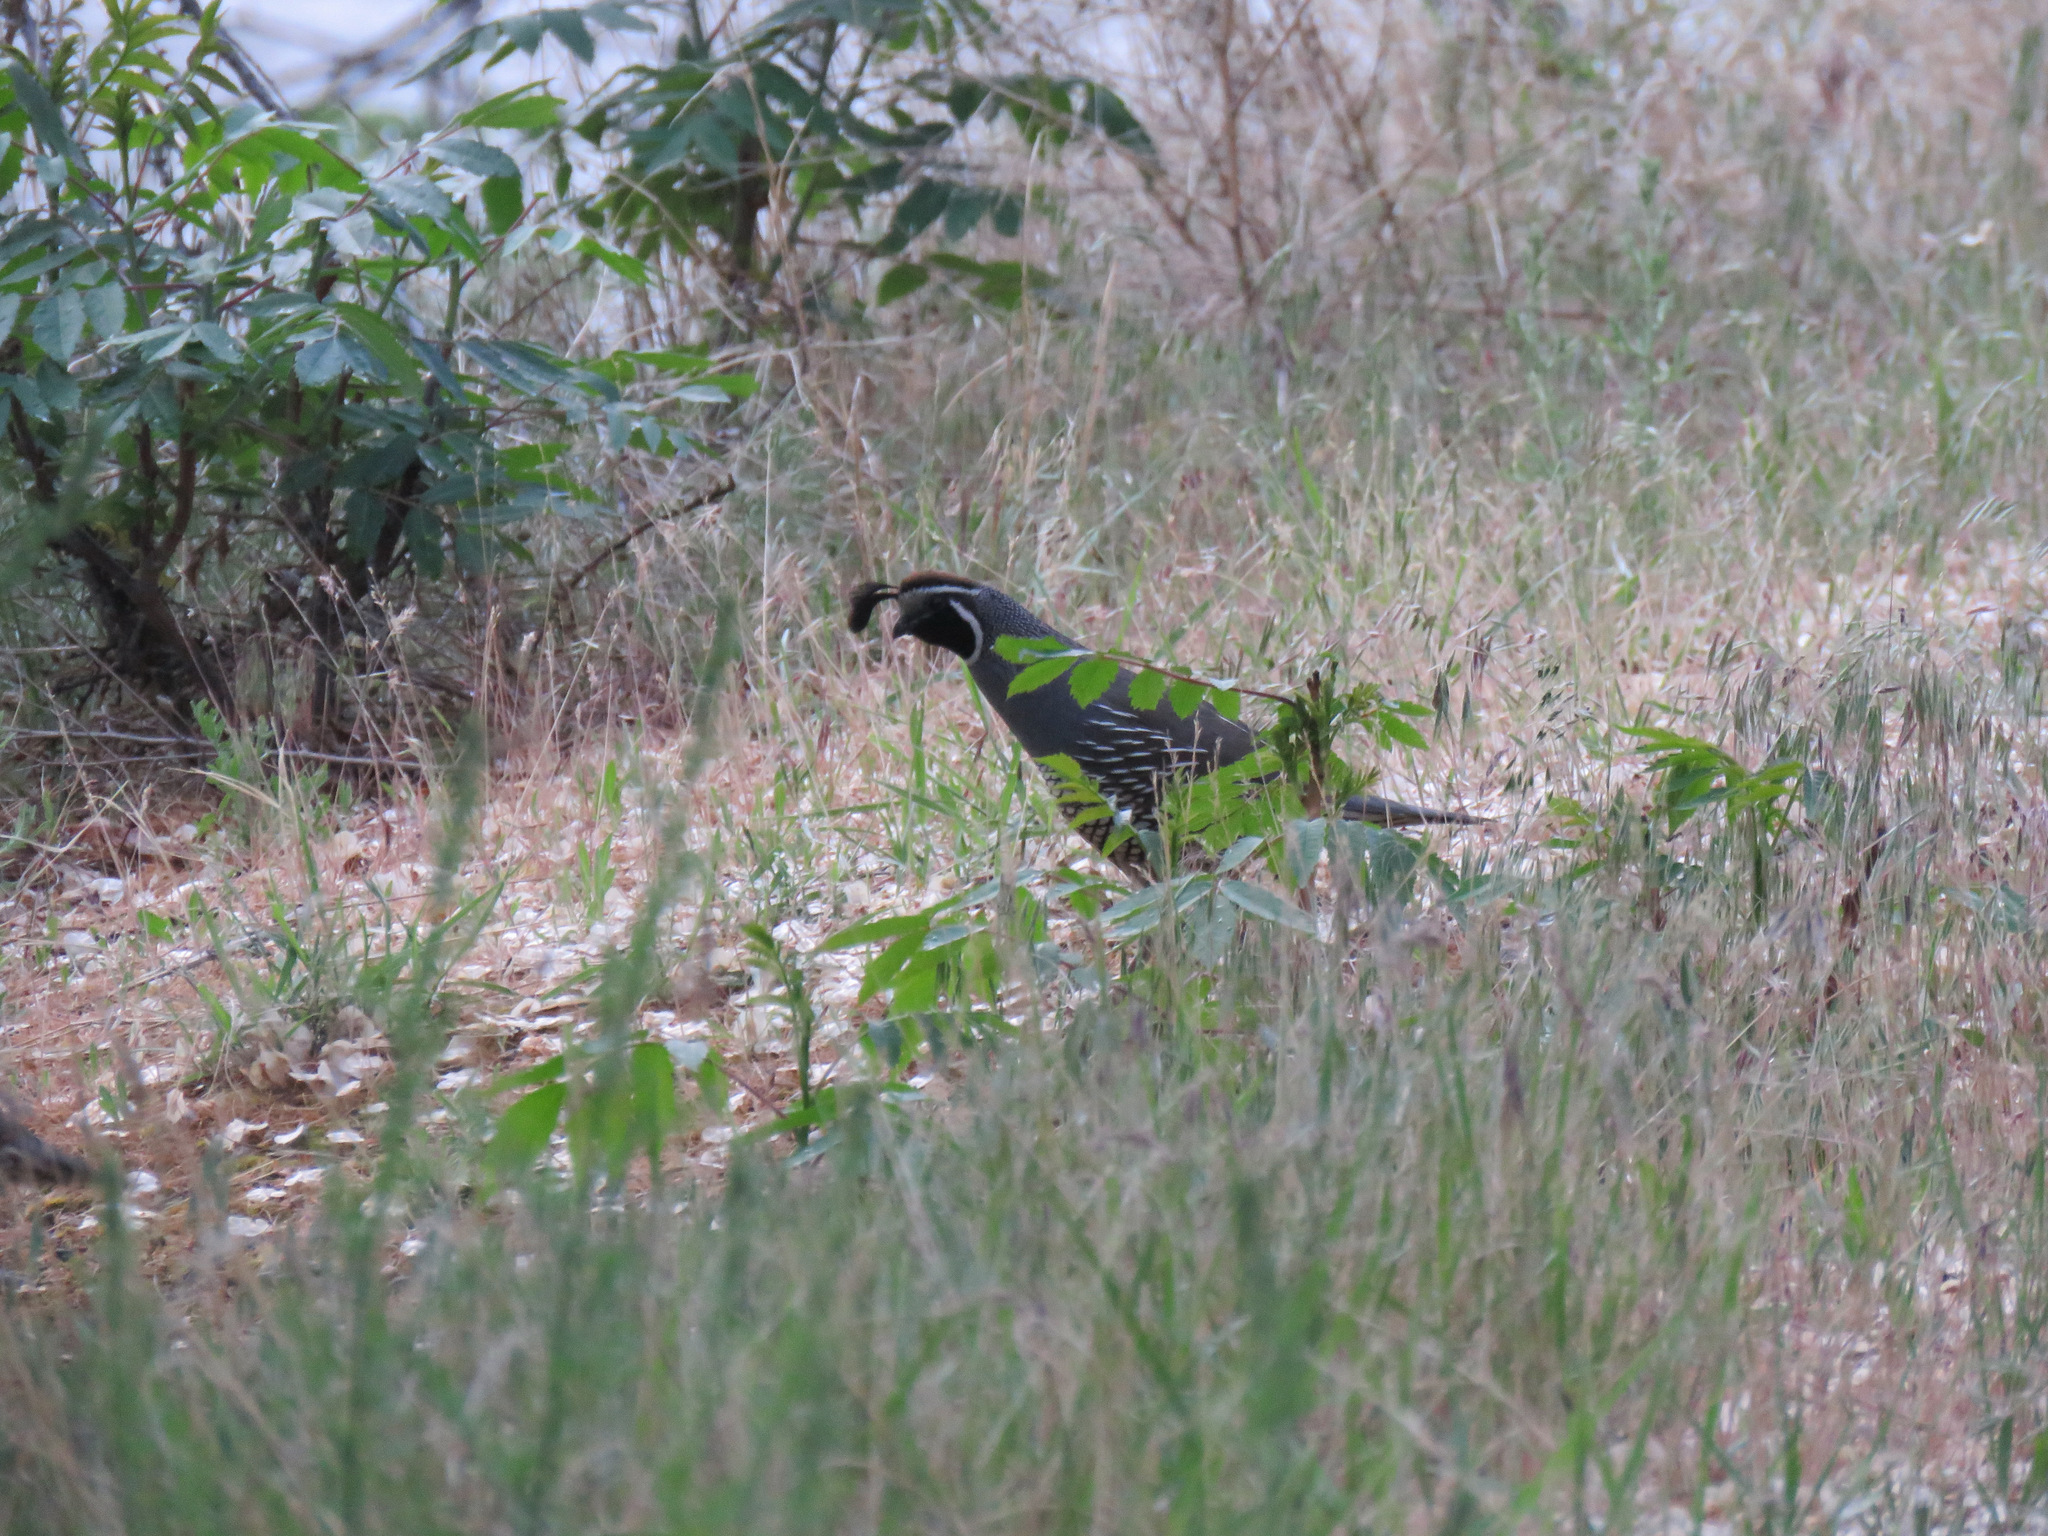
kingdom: Animalia
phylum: Chordata
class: Aves
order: Galliformes
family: Odontophoridae
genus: Callipepla
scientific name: Callipepla californica
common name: California quail
